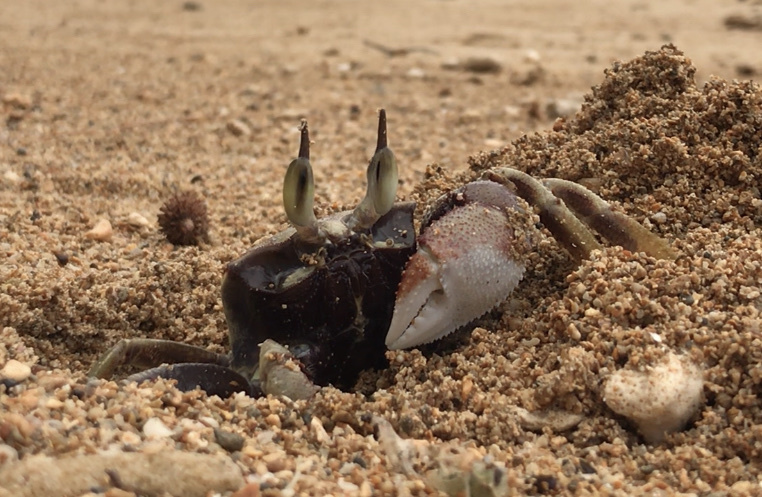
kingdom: Animalia
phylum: Arthropoda
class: Malacostraca
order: Decapoda
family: Ocypodidae
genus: Ocypode
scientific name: Ocypode ceratophthalmus
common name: Indo-pacific ghost crab
